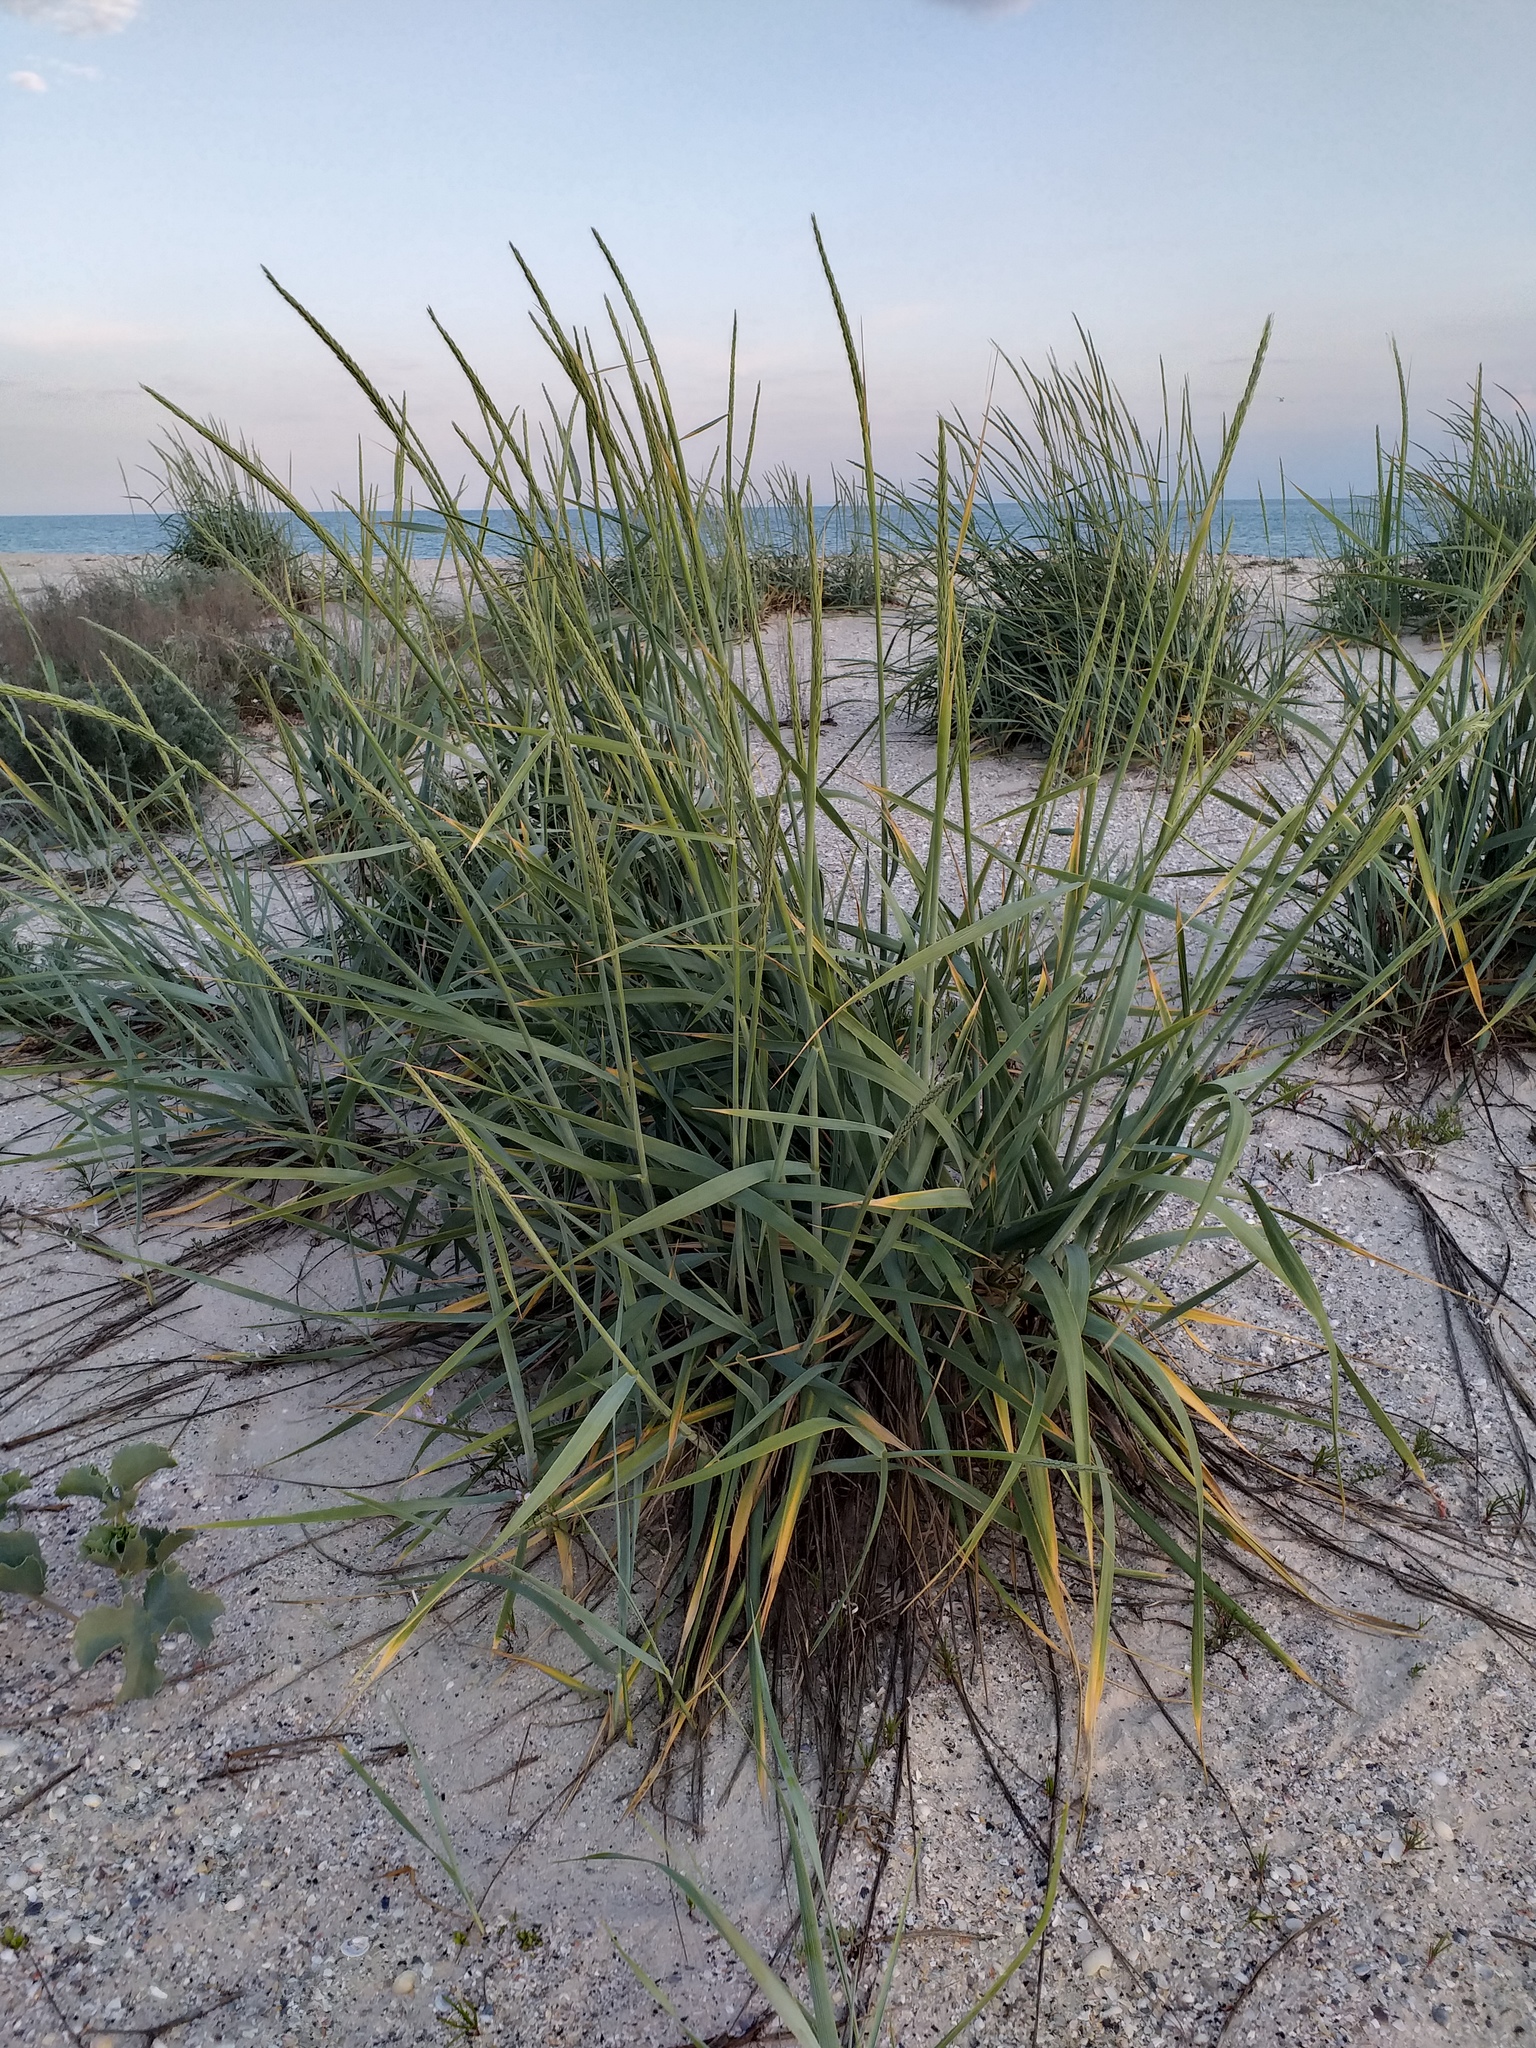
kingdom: Plantae
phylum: Tracheophyta
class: Liliopsida
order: Poales
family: Poaceae
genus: Leymus
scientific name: Leymus racemosus
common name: Mammoth wildrye
